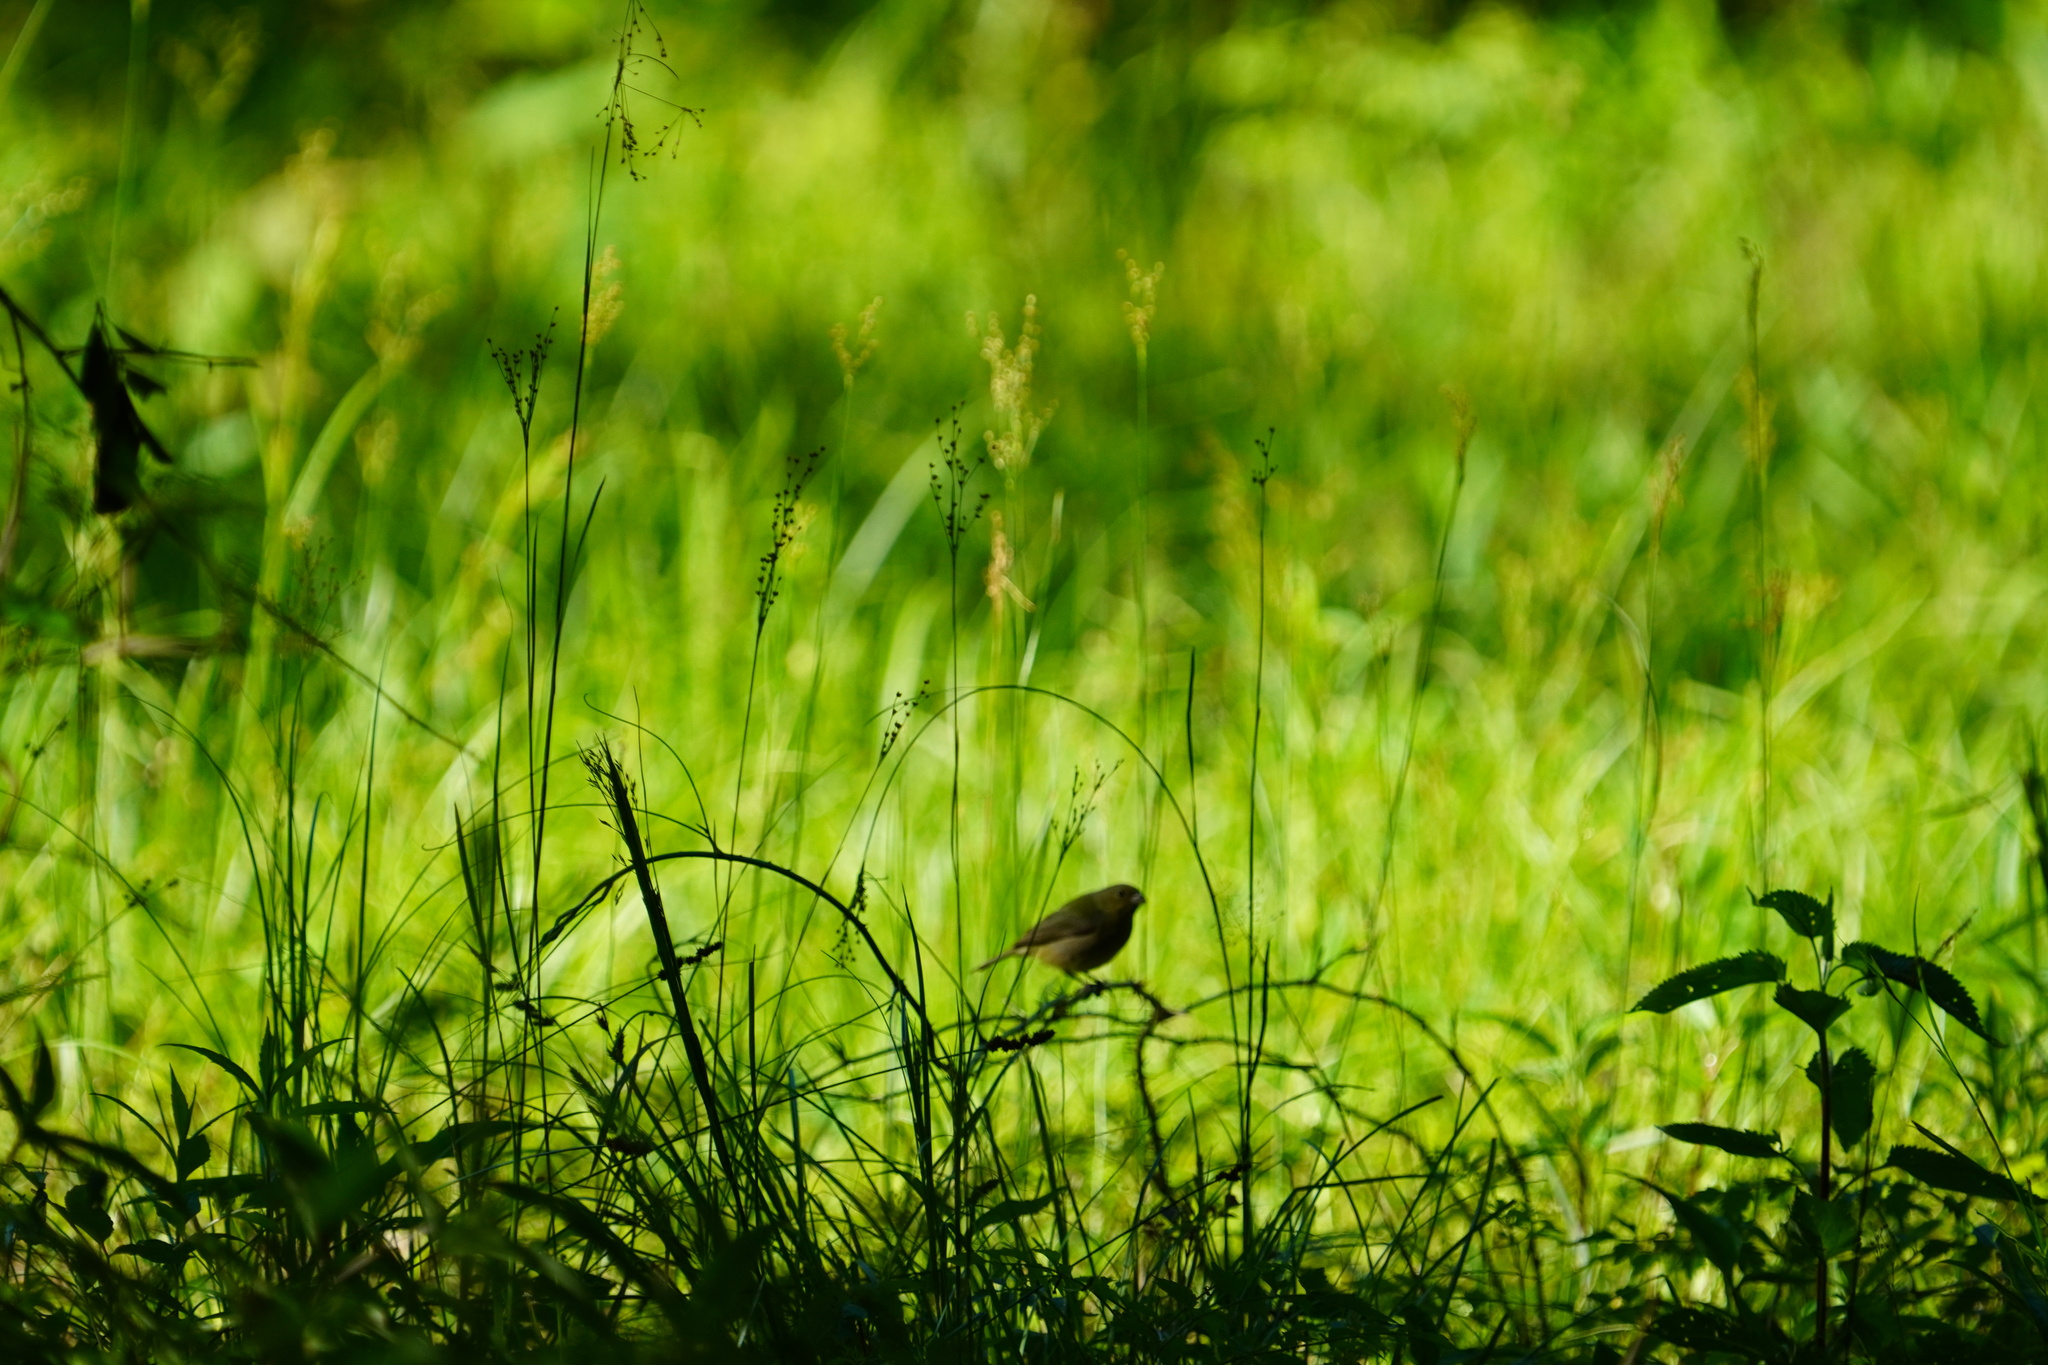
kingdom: Animalia
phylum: Chordata
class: Aves
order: Passeriformes
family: Cardinalidae
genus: Passerina
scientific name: Passerina ciris
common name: Painted bunting
